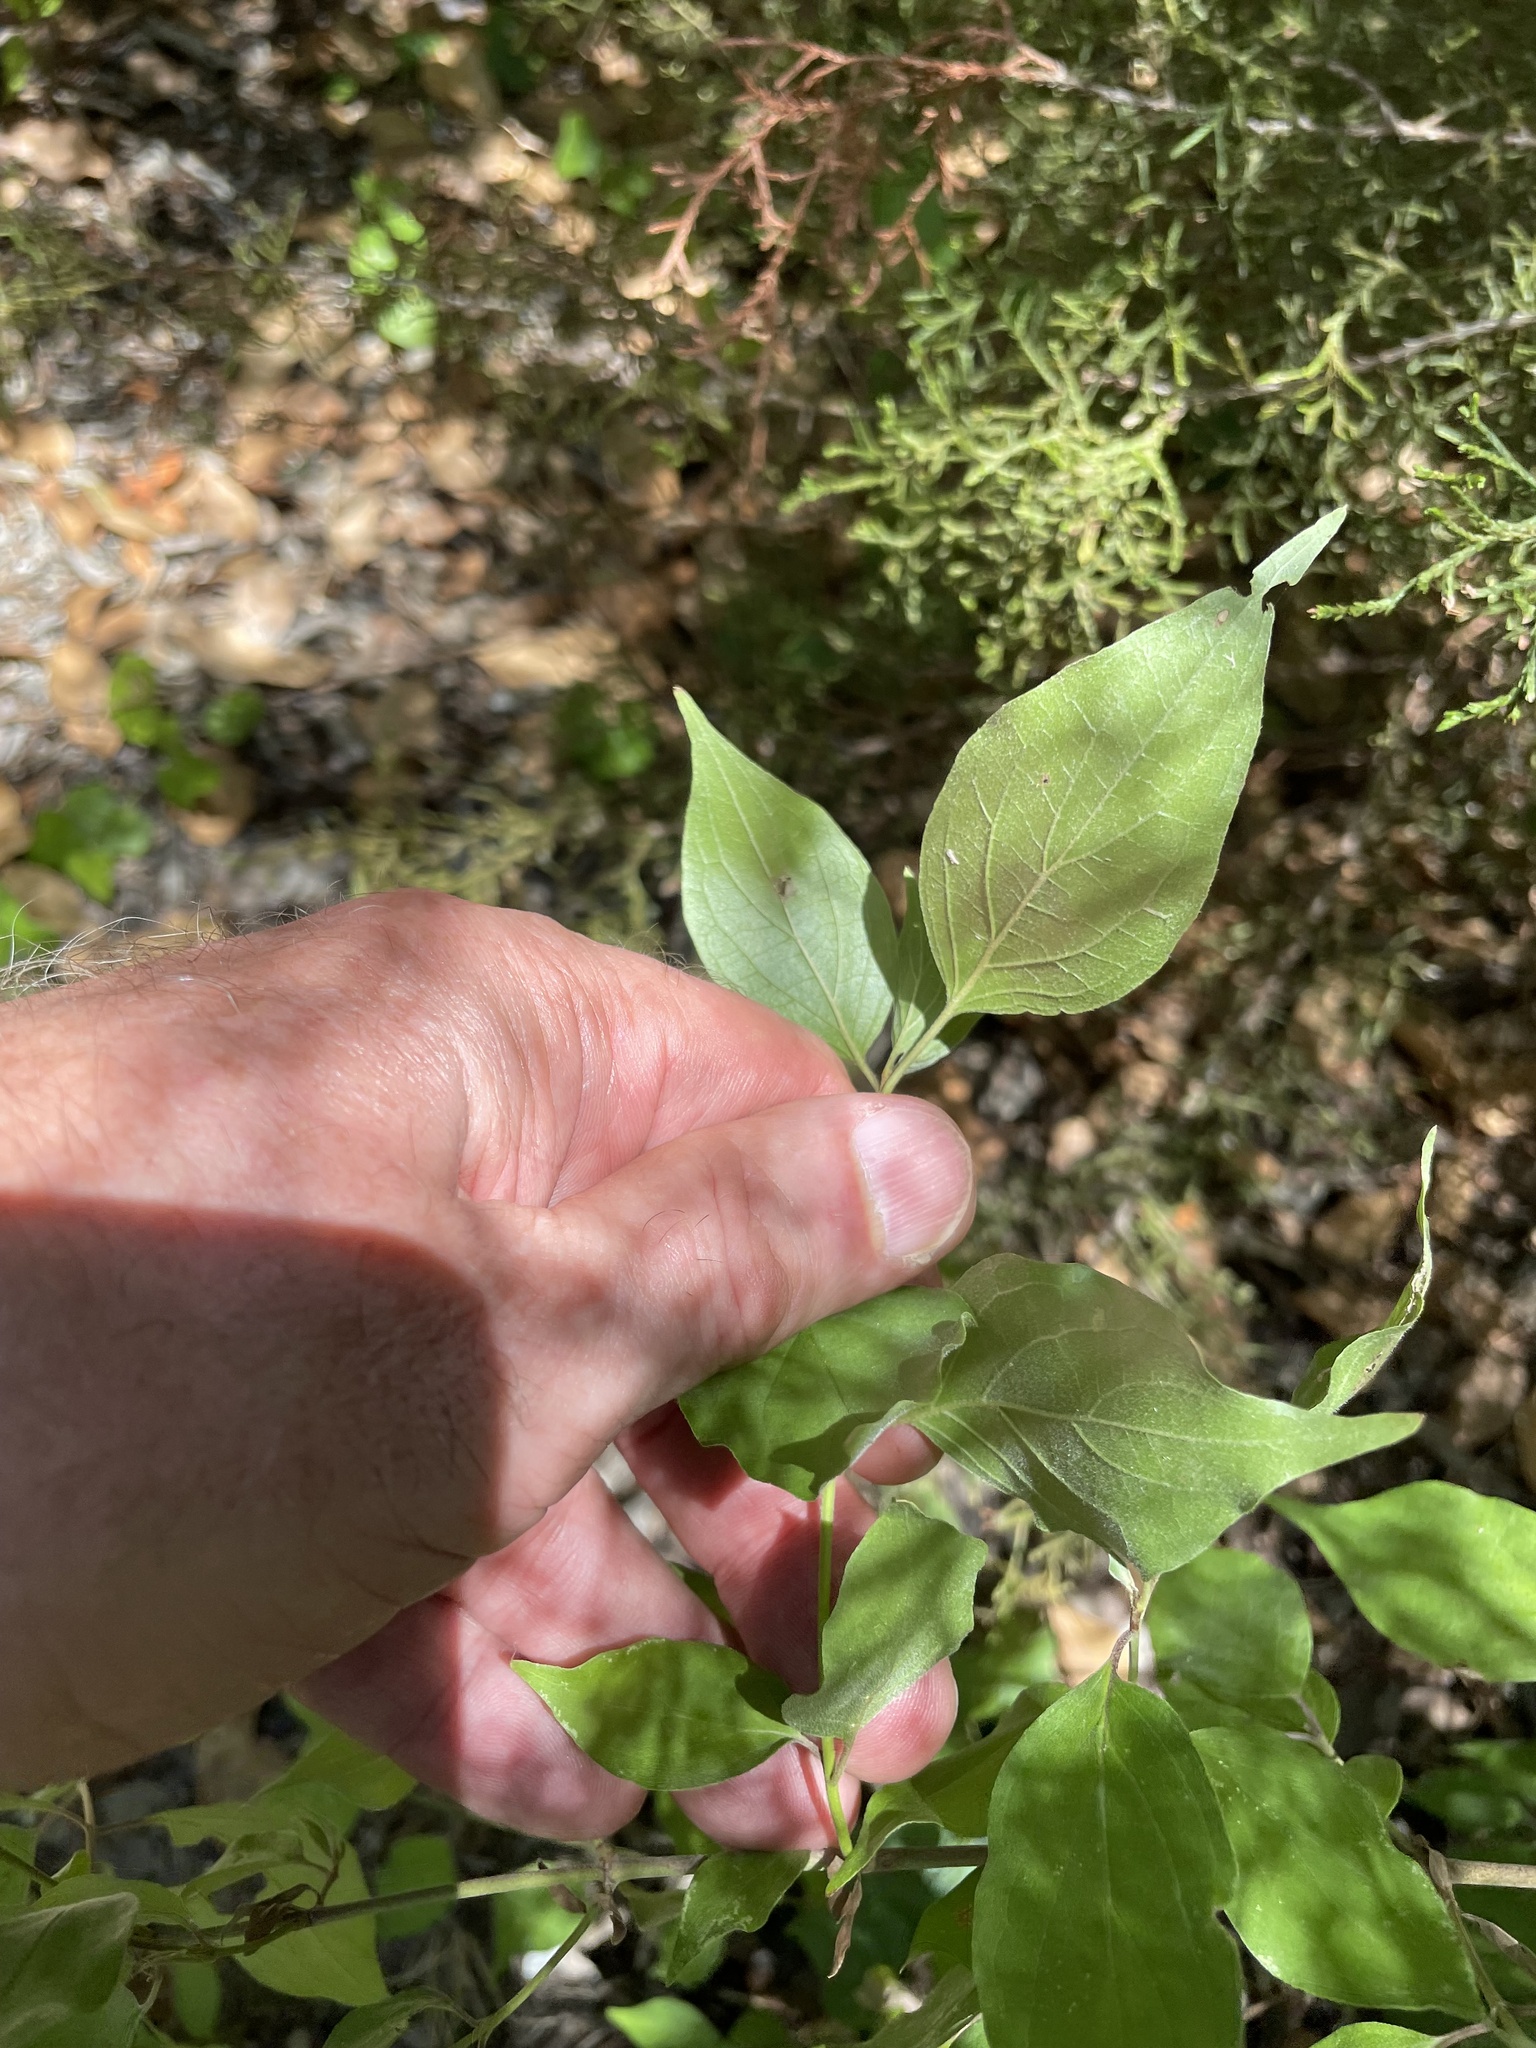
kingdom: Plantae
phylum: Tracheophyta
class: Magnoliopsida
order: Cornales
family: Cornaceae
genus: Cornus
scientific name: Cornus drummondii
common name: Rough-leaf dogwood
